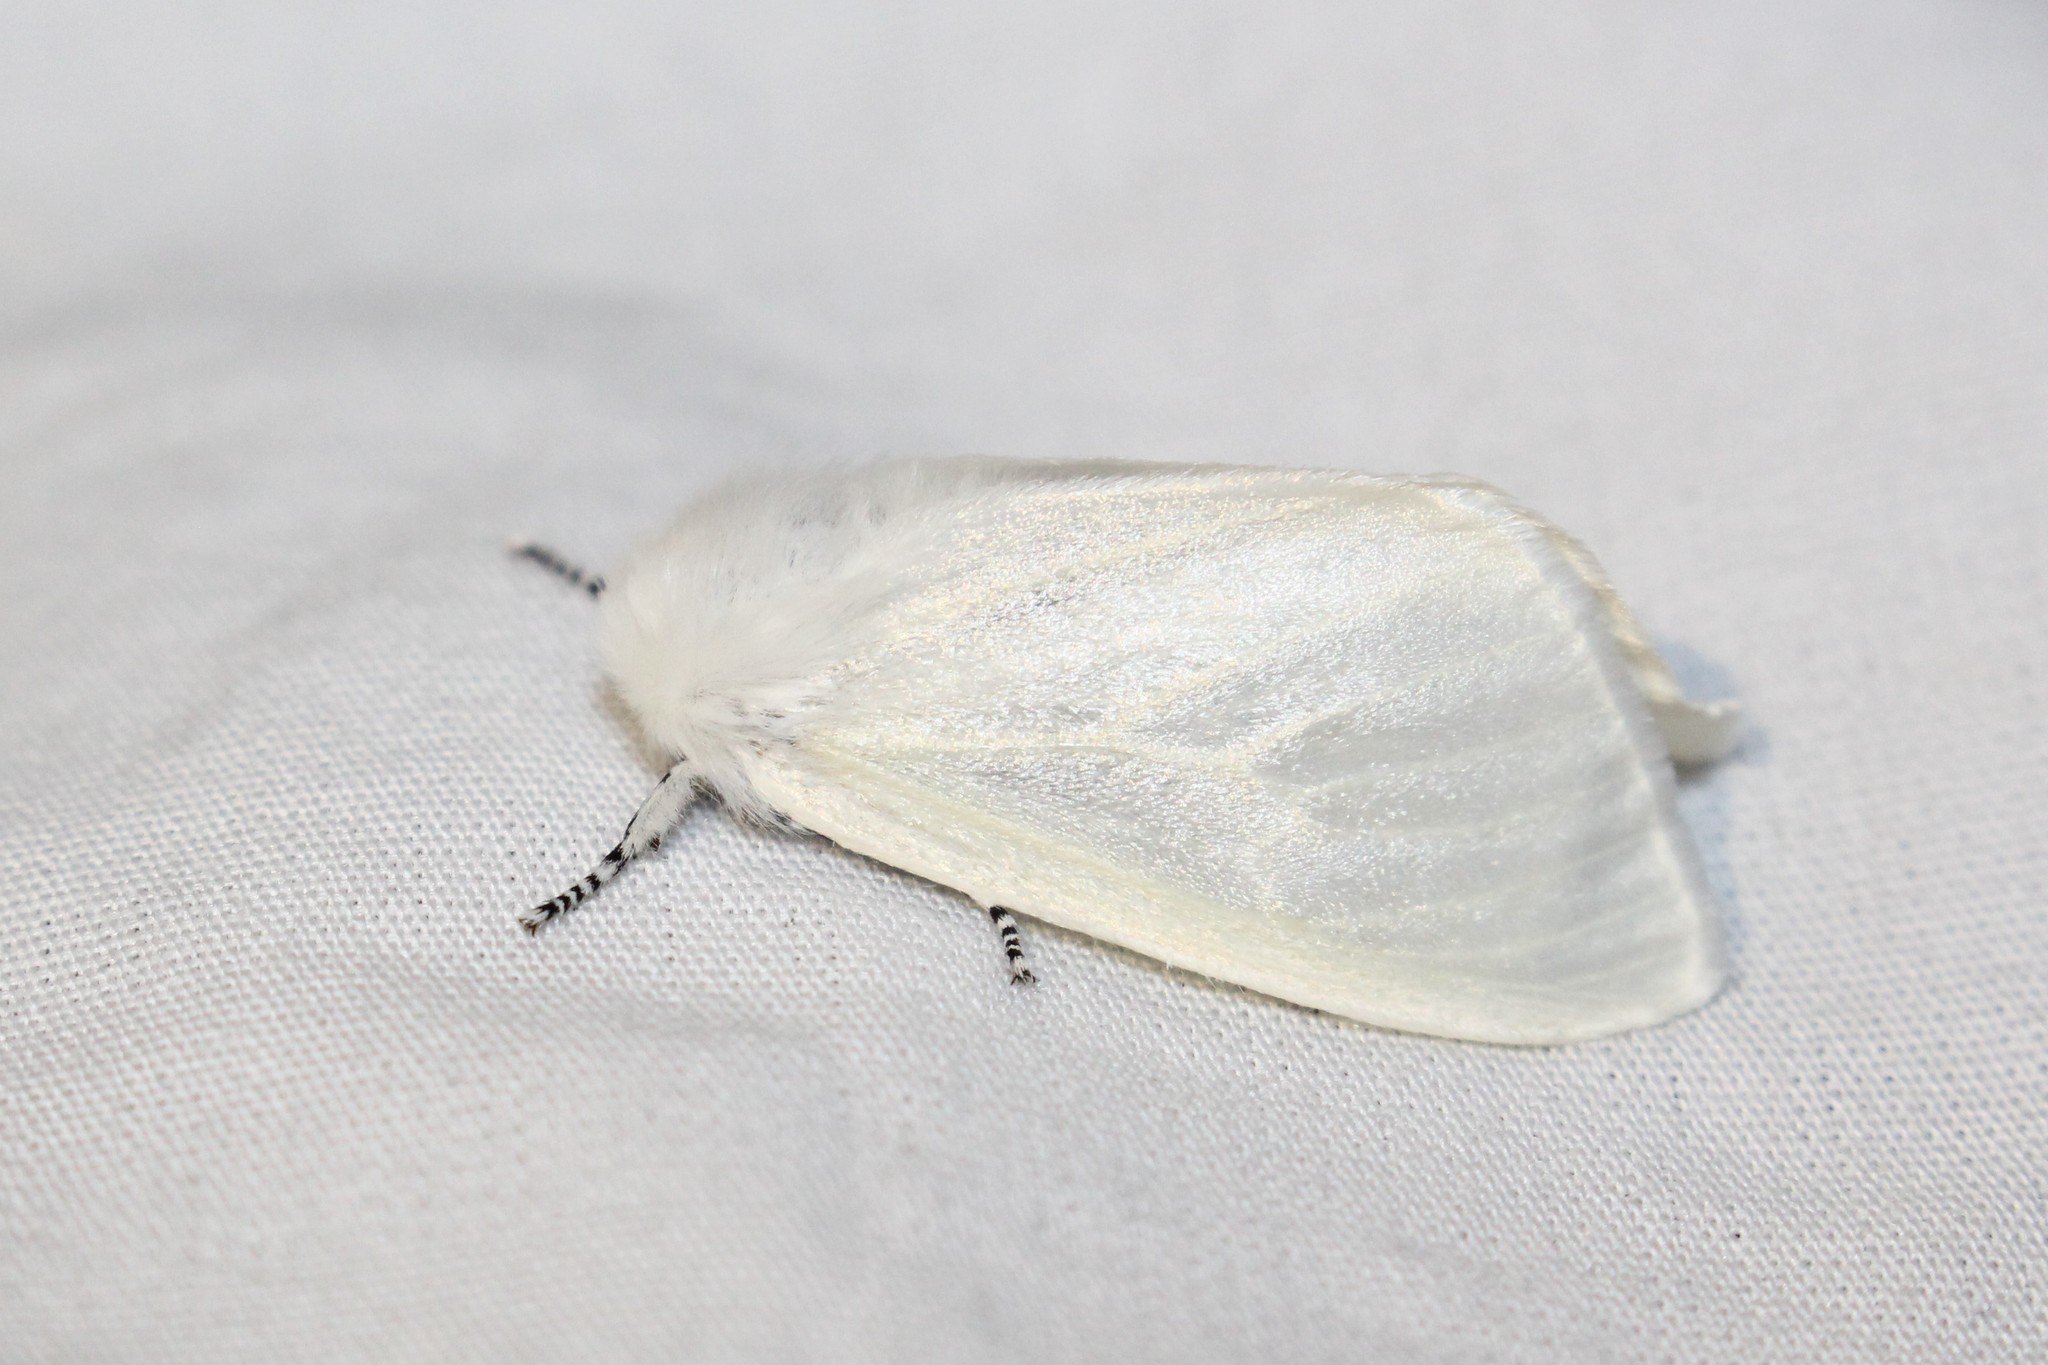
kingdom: Animalia
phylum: Arthropoda
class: Insecta
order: Lepidoptera
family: Erebidae
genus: Leucoma
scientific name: Leucoma salicis
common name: White satin moth
